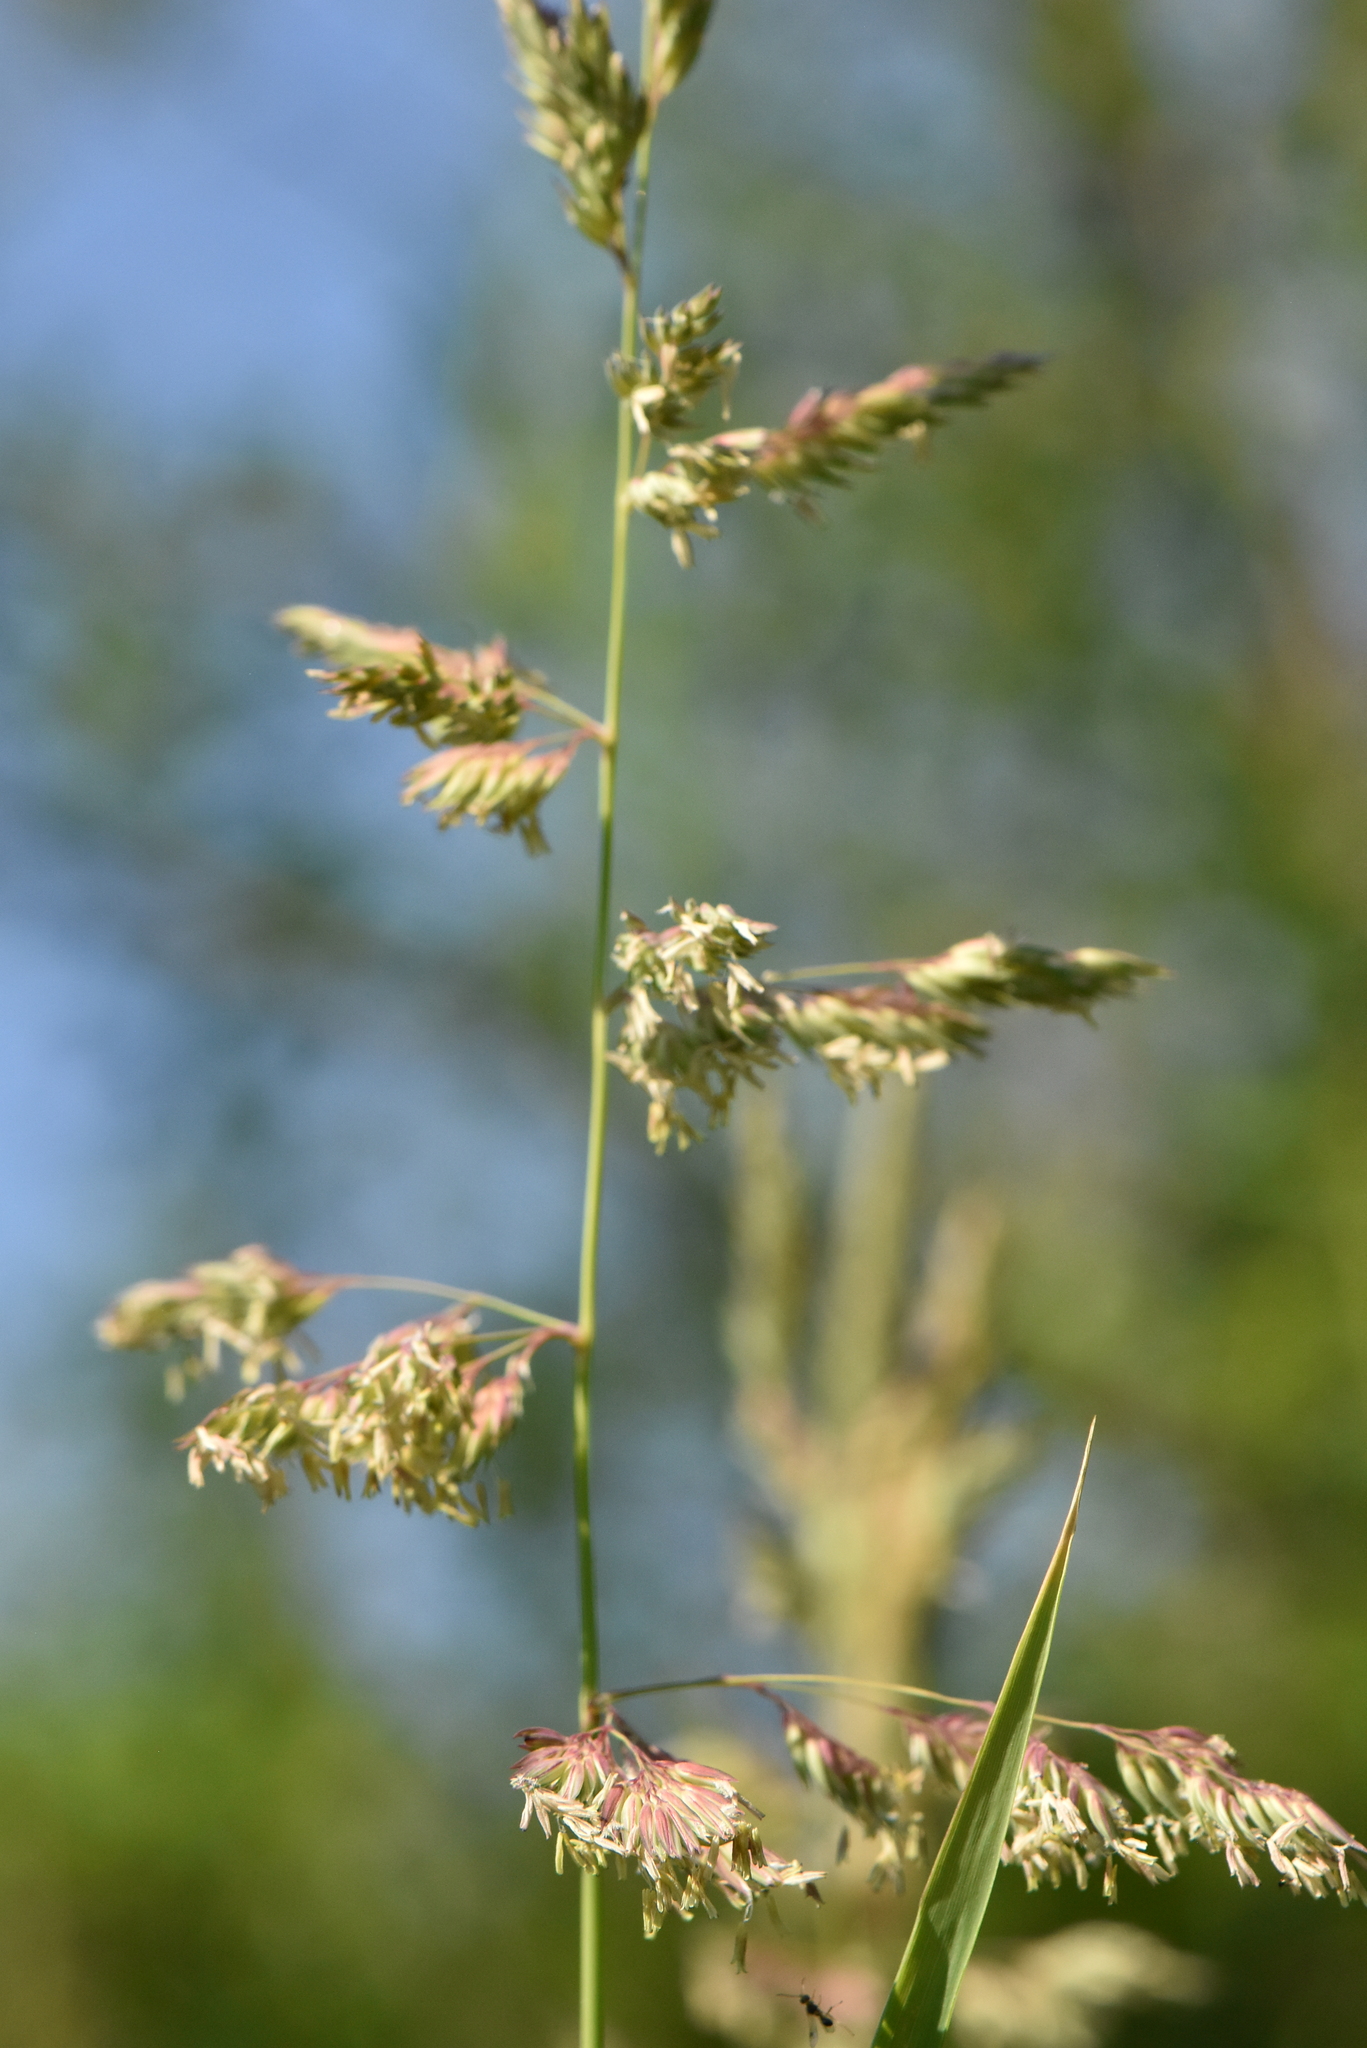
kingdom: Plantae
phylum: Tracheophyta
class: Liliopsida
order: Poales
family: Poaceae
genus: Phalaris
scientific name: Phalaris arundinacea
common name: Reed canary-grass
